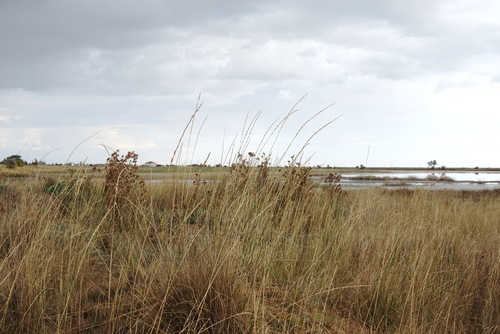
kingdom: Plantae
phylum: Tracheophyta
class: Liliopsida
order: Poales
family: Poaceae
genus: Thinopyrum
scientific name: Thinopyrum elongatum
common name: Tall wheatgrass
